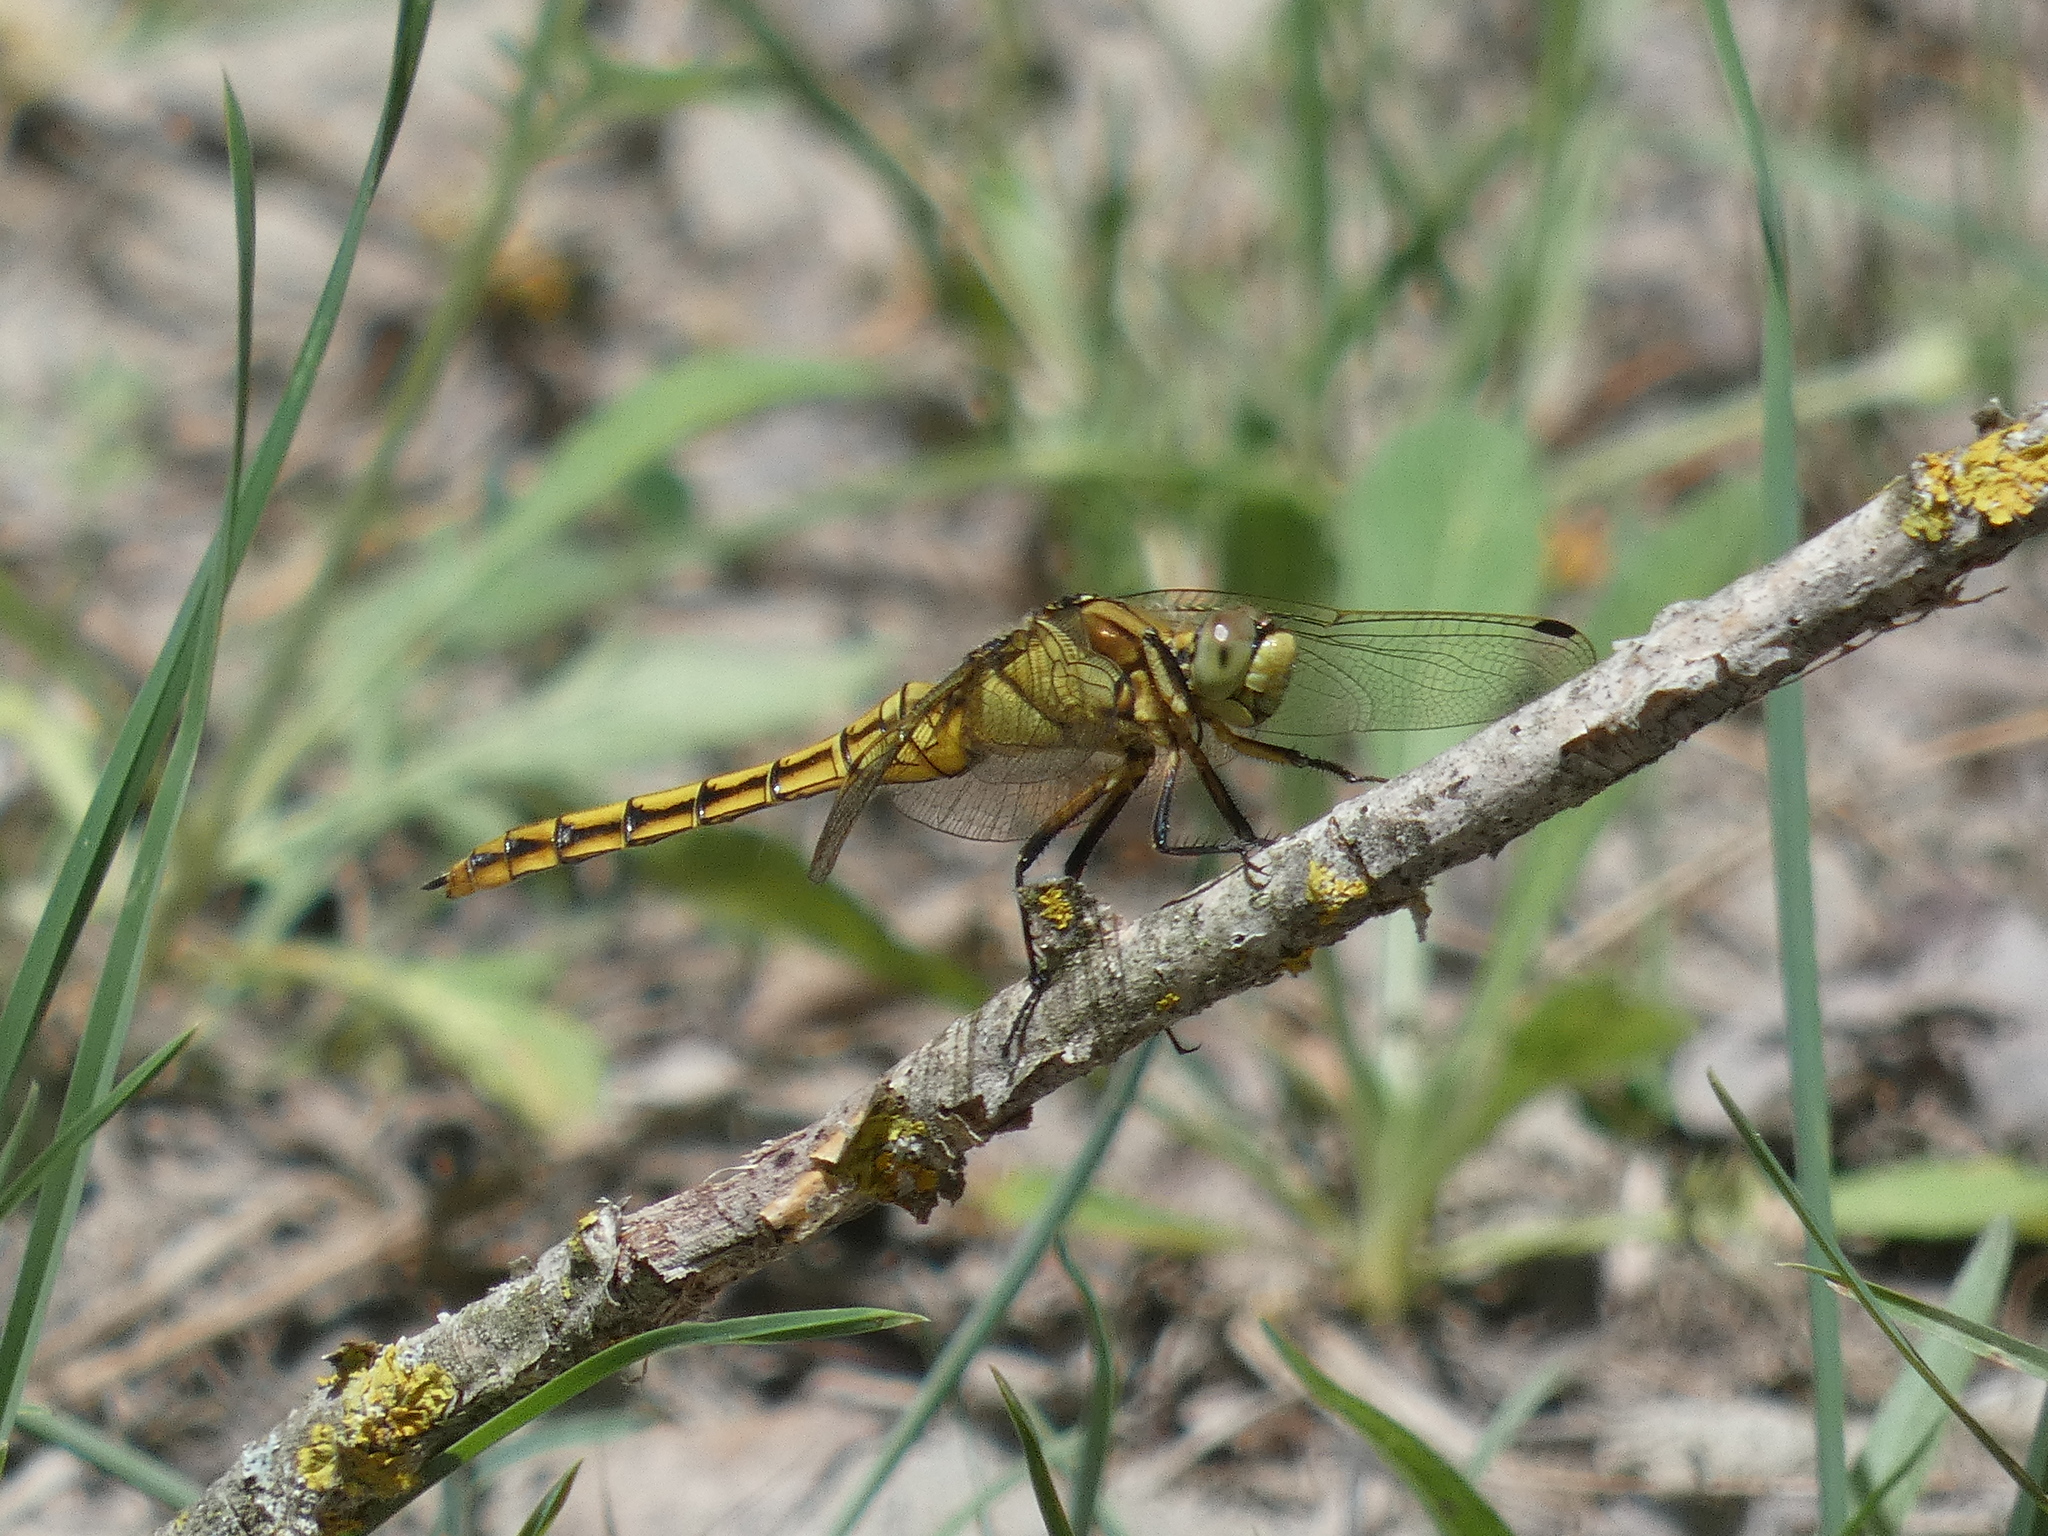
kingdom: Animalia
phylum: Arthropoda
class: Insecta
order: Odonata
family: Libellulidae
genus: Orthetrum
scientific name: Orthetrum cancellatum
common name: Black-tailed skimmer
